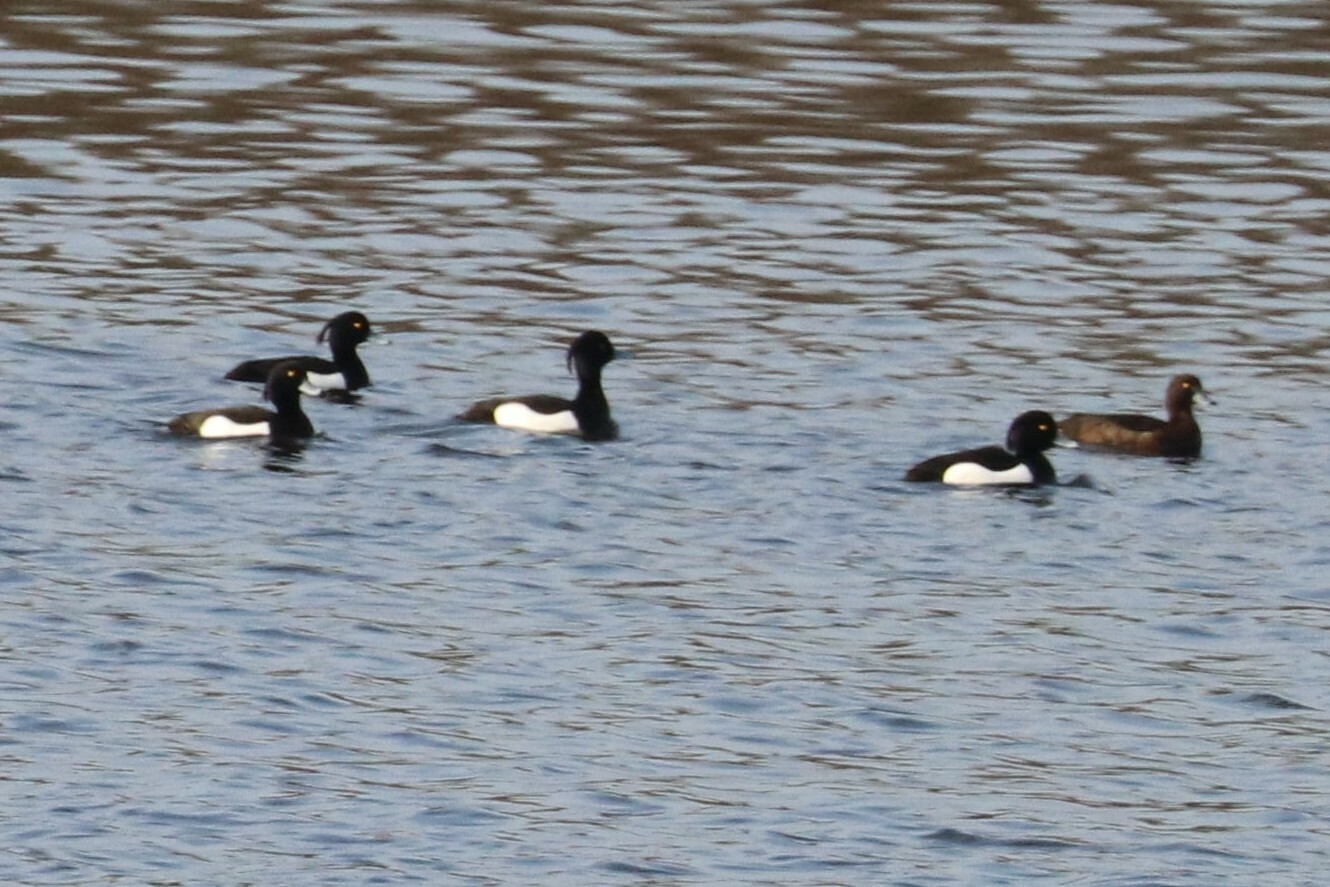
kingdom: Animalia
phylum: Chordata
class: Aves
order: Anseriformes
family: Anatidae
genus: Aythya
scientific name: Aythya fuligula
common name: Tufted duck
